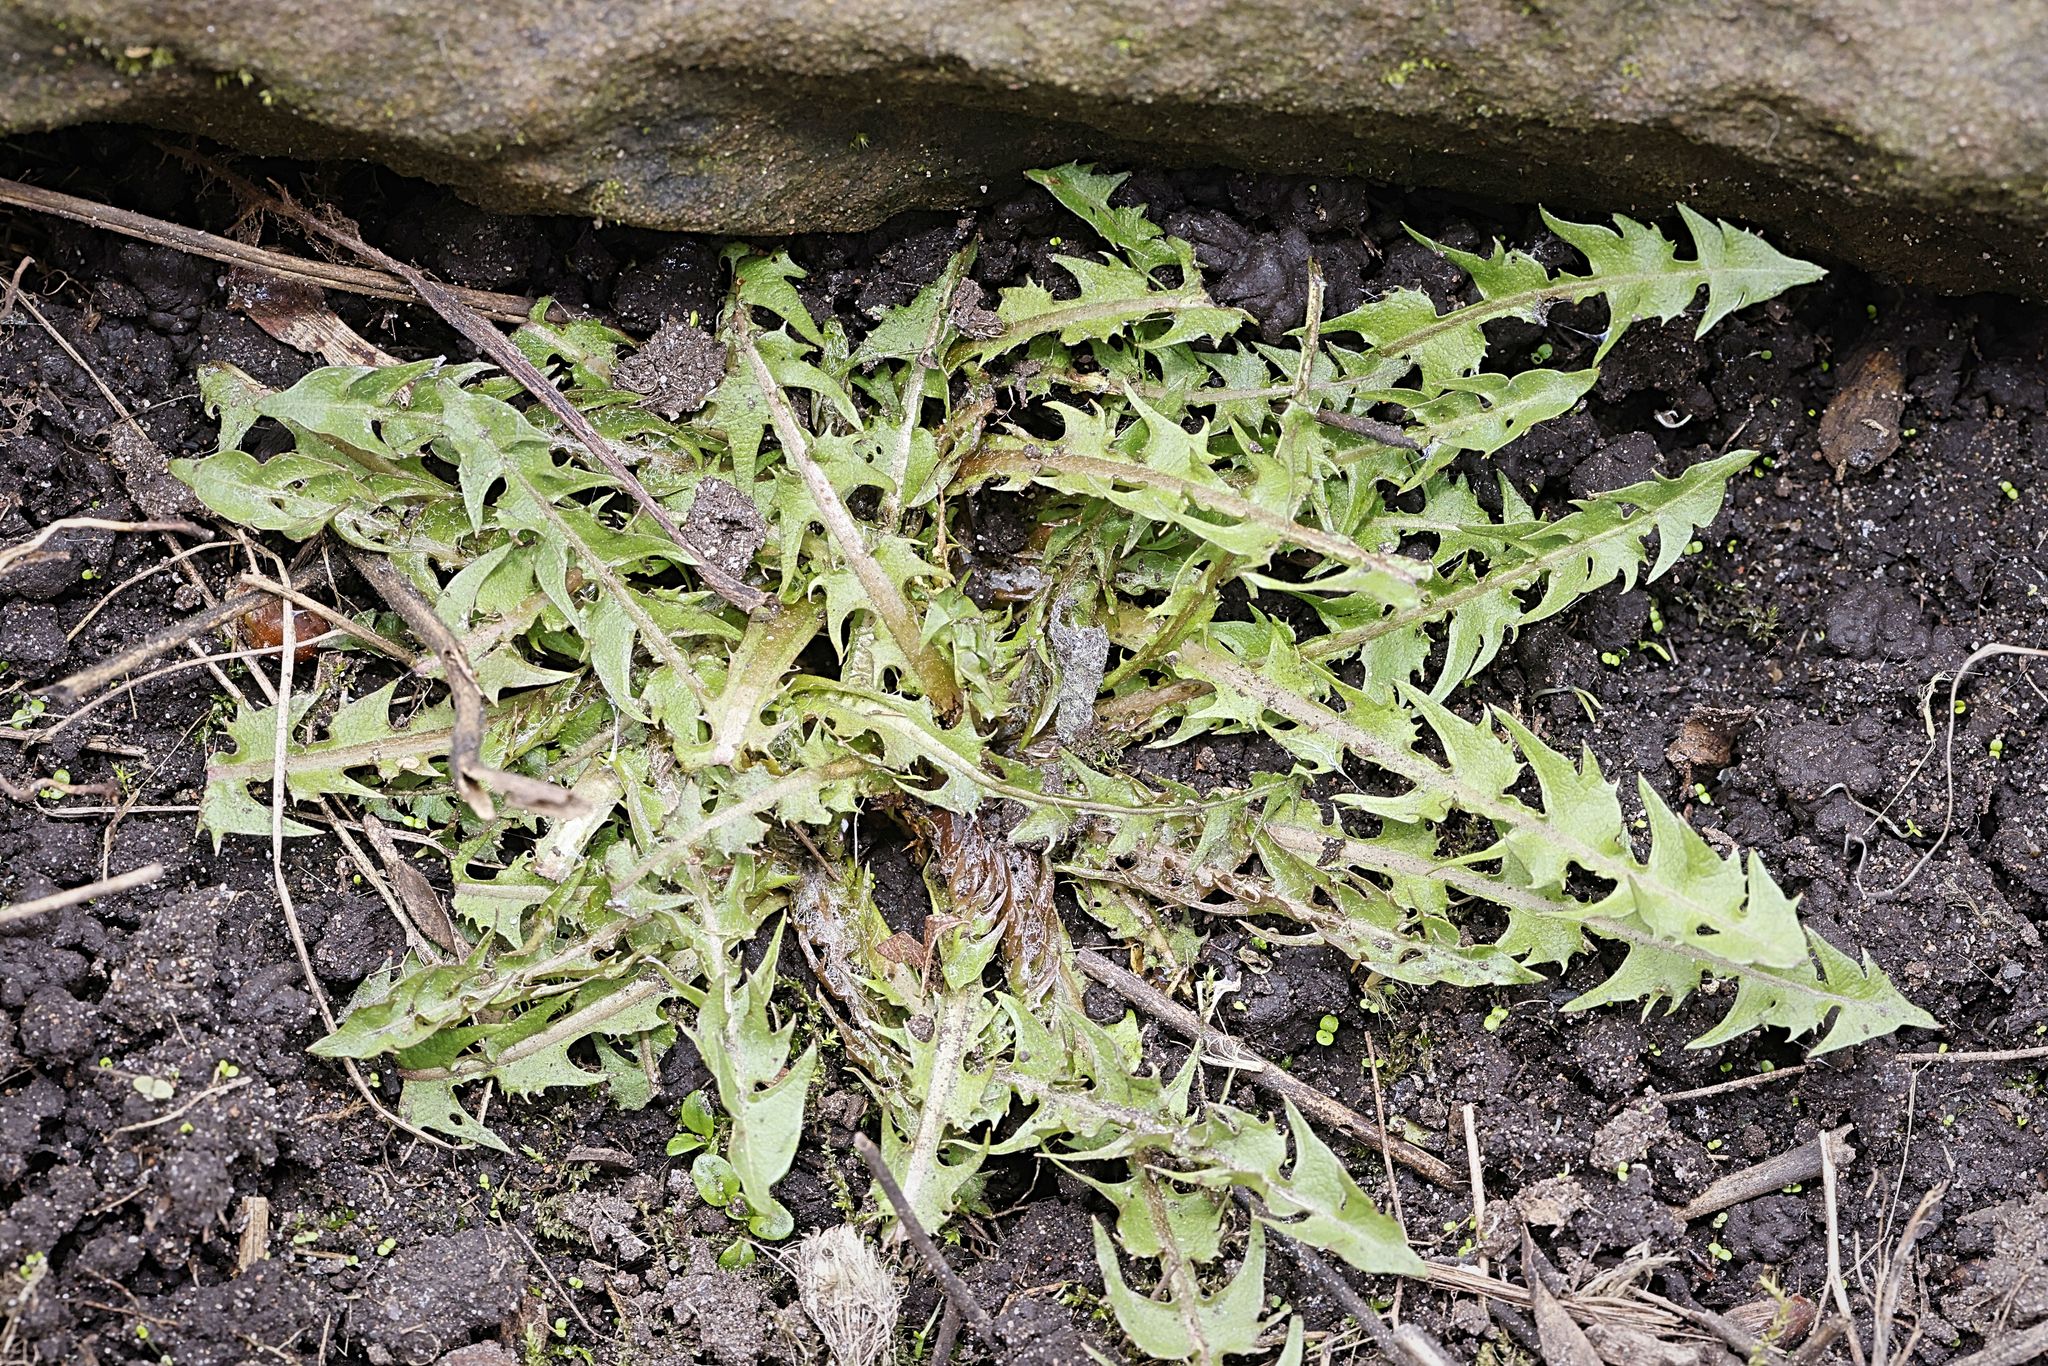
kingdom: Plantae
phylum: Tracheophyta
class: Magnoliopsida
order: Asterales
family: Asteraceae
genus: Taraxacum
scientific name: Taraxacum officinale
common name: Common dandelion
